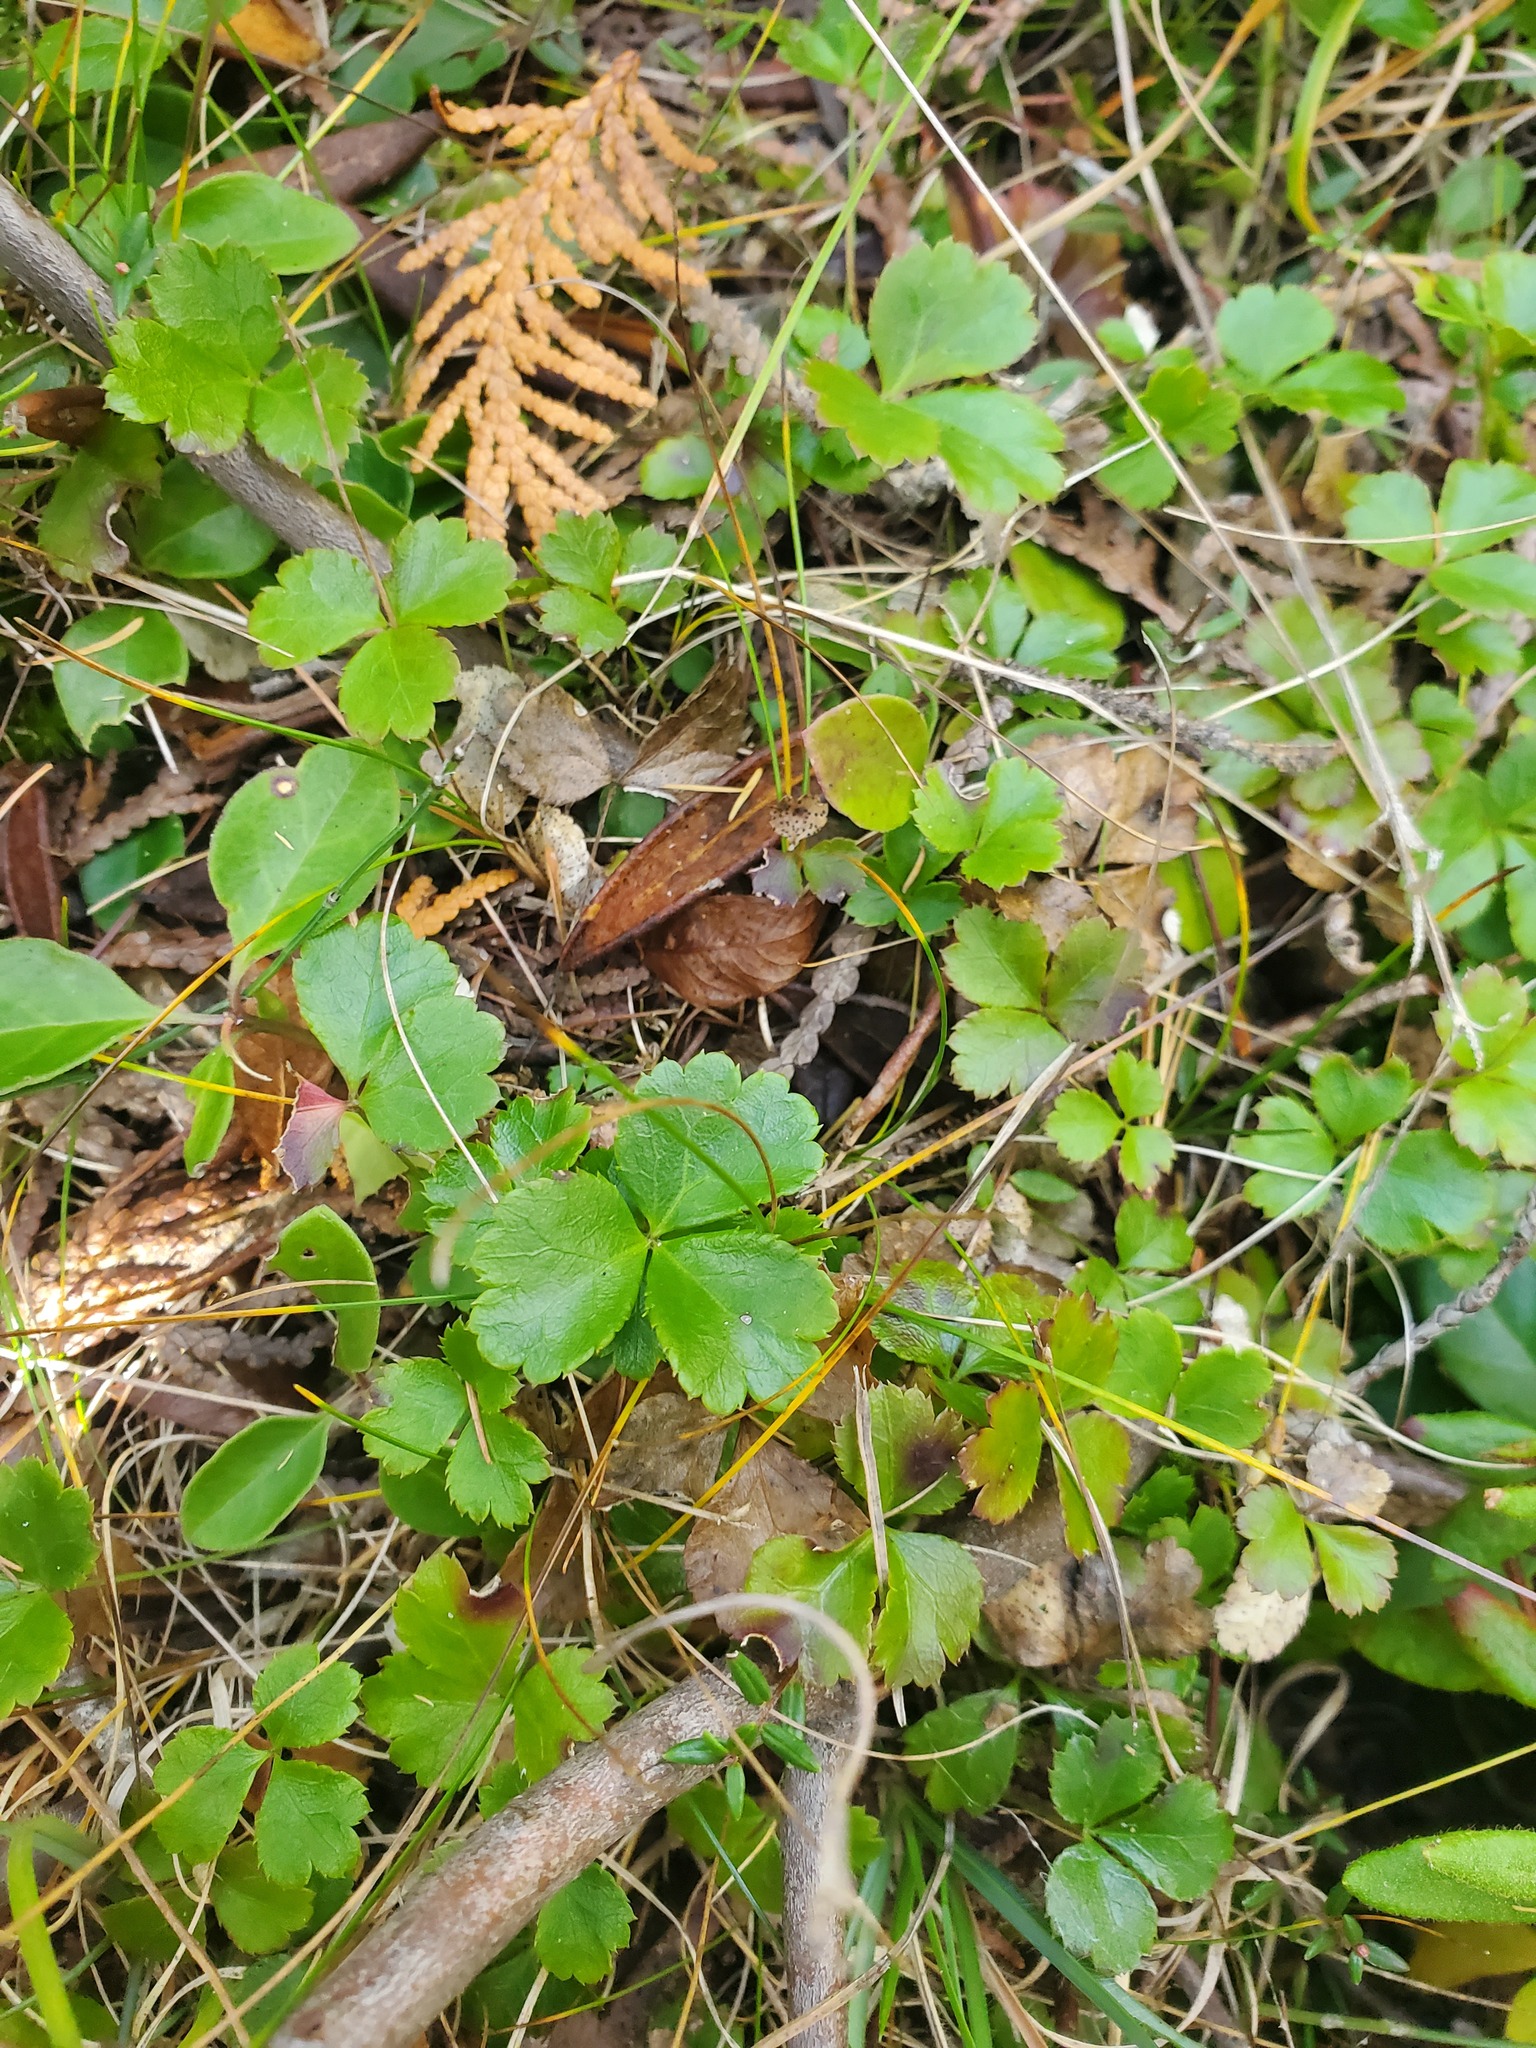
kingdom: Plantae
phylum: Tracheophyta
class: Magnoliopsida
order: Ranunculales
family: Ranunculaceae
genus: Coptis
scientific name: Coptis trifolia
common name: Canker-root
